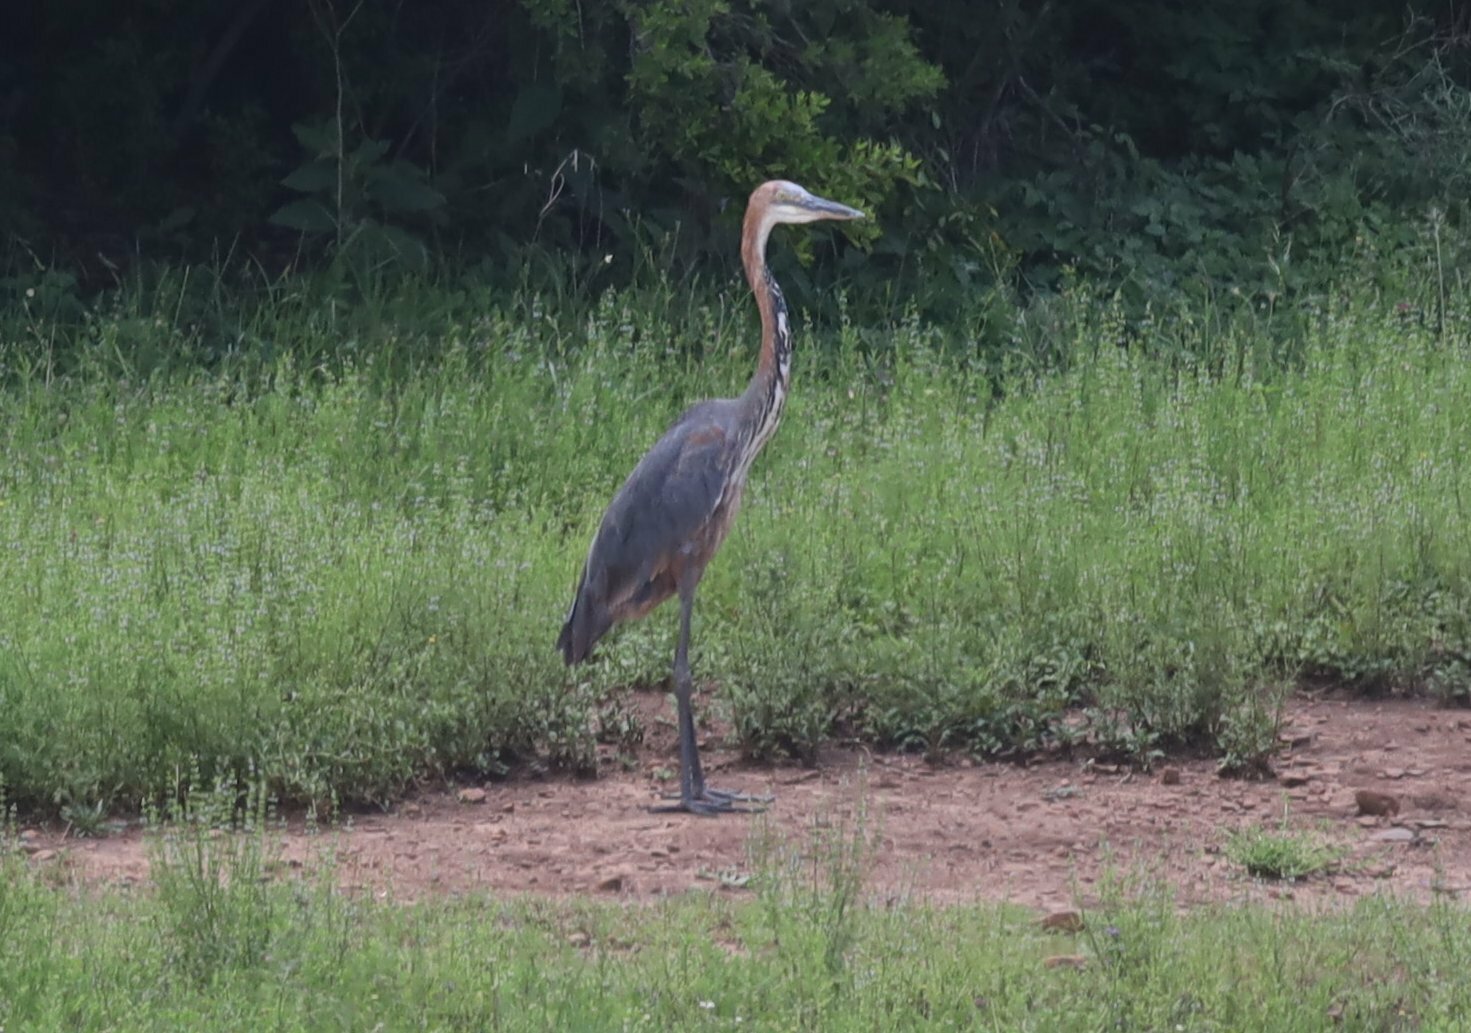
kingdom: Animalia
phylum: Chordata
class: Aves
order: Pelecaniformes
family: Ardeidae
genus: Ardea
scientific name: Ardea goliath
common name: Goliath heron
